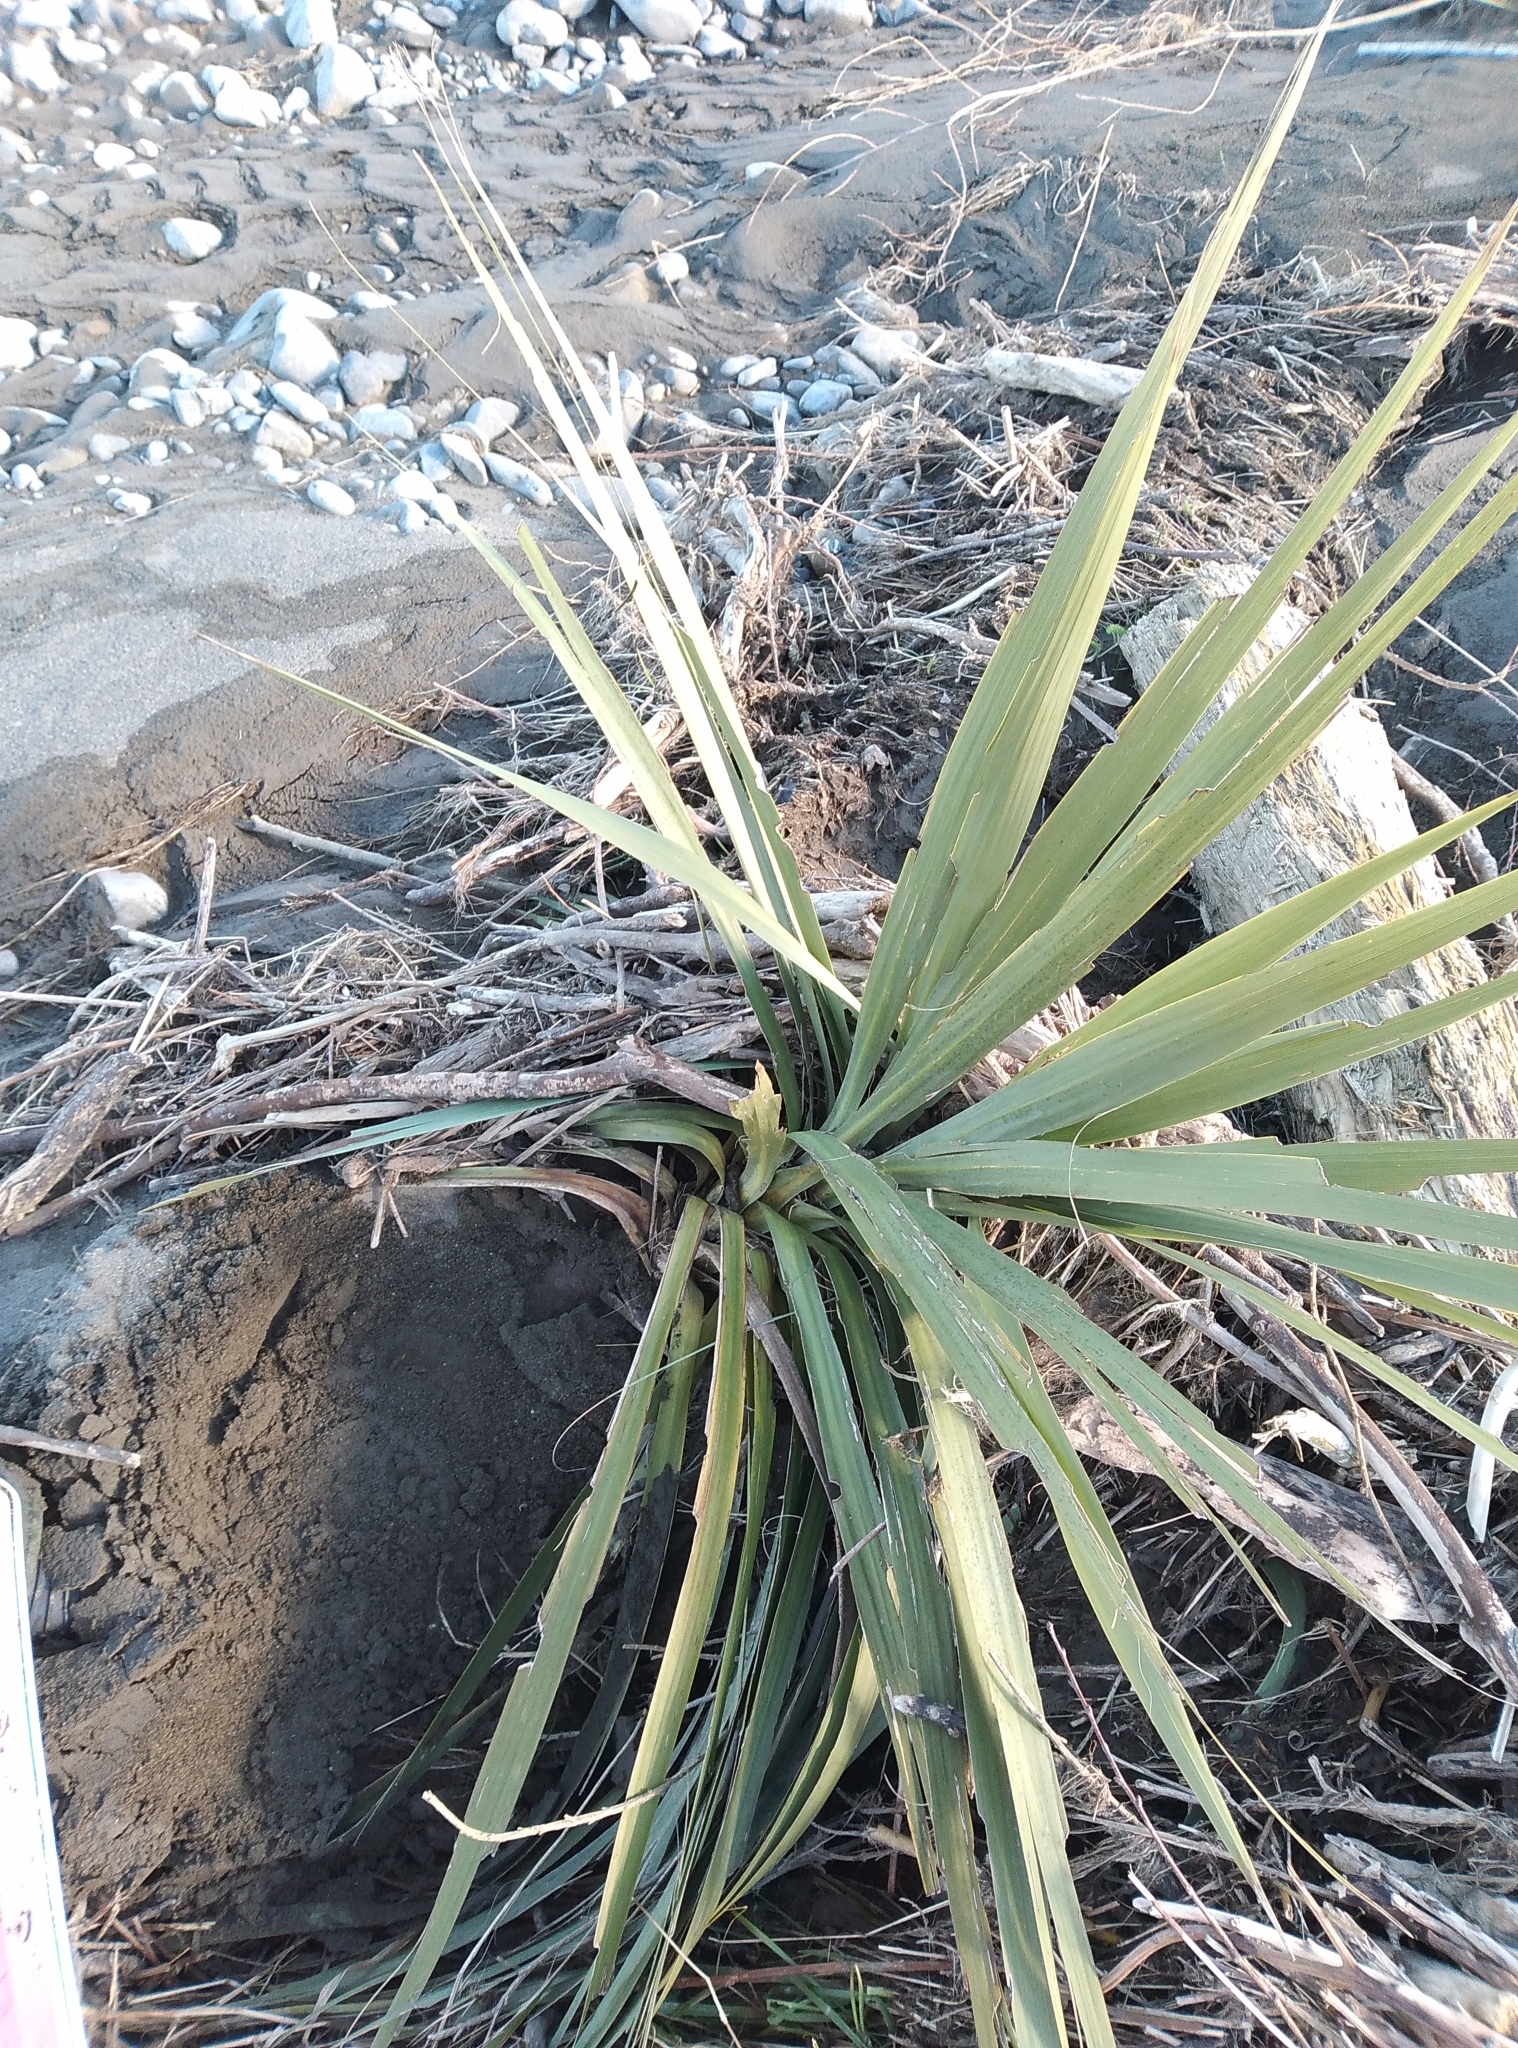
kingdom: Plantae
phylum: Tracheophyta
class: Liliopsida
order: Asparagales
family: Asparagaceae
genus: Cordyline
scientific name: Cordyline australis
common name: Cabbage-palm
